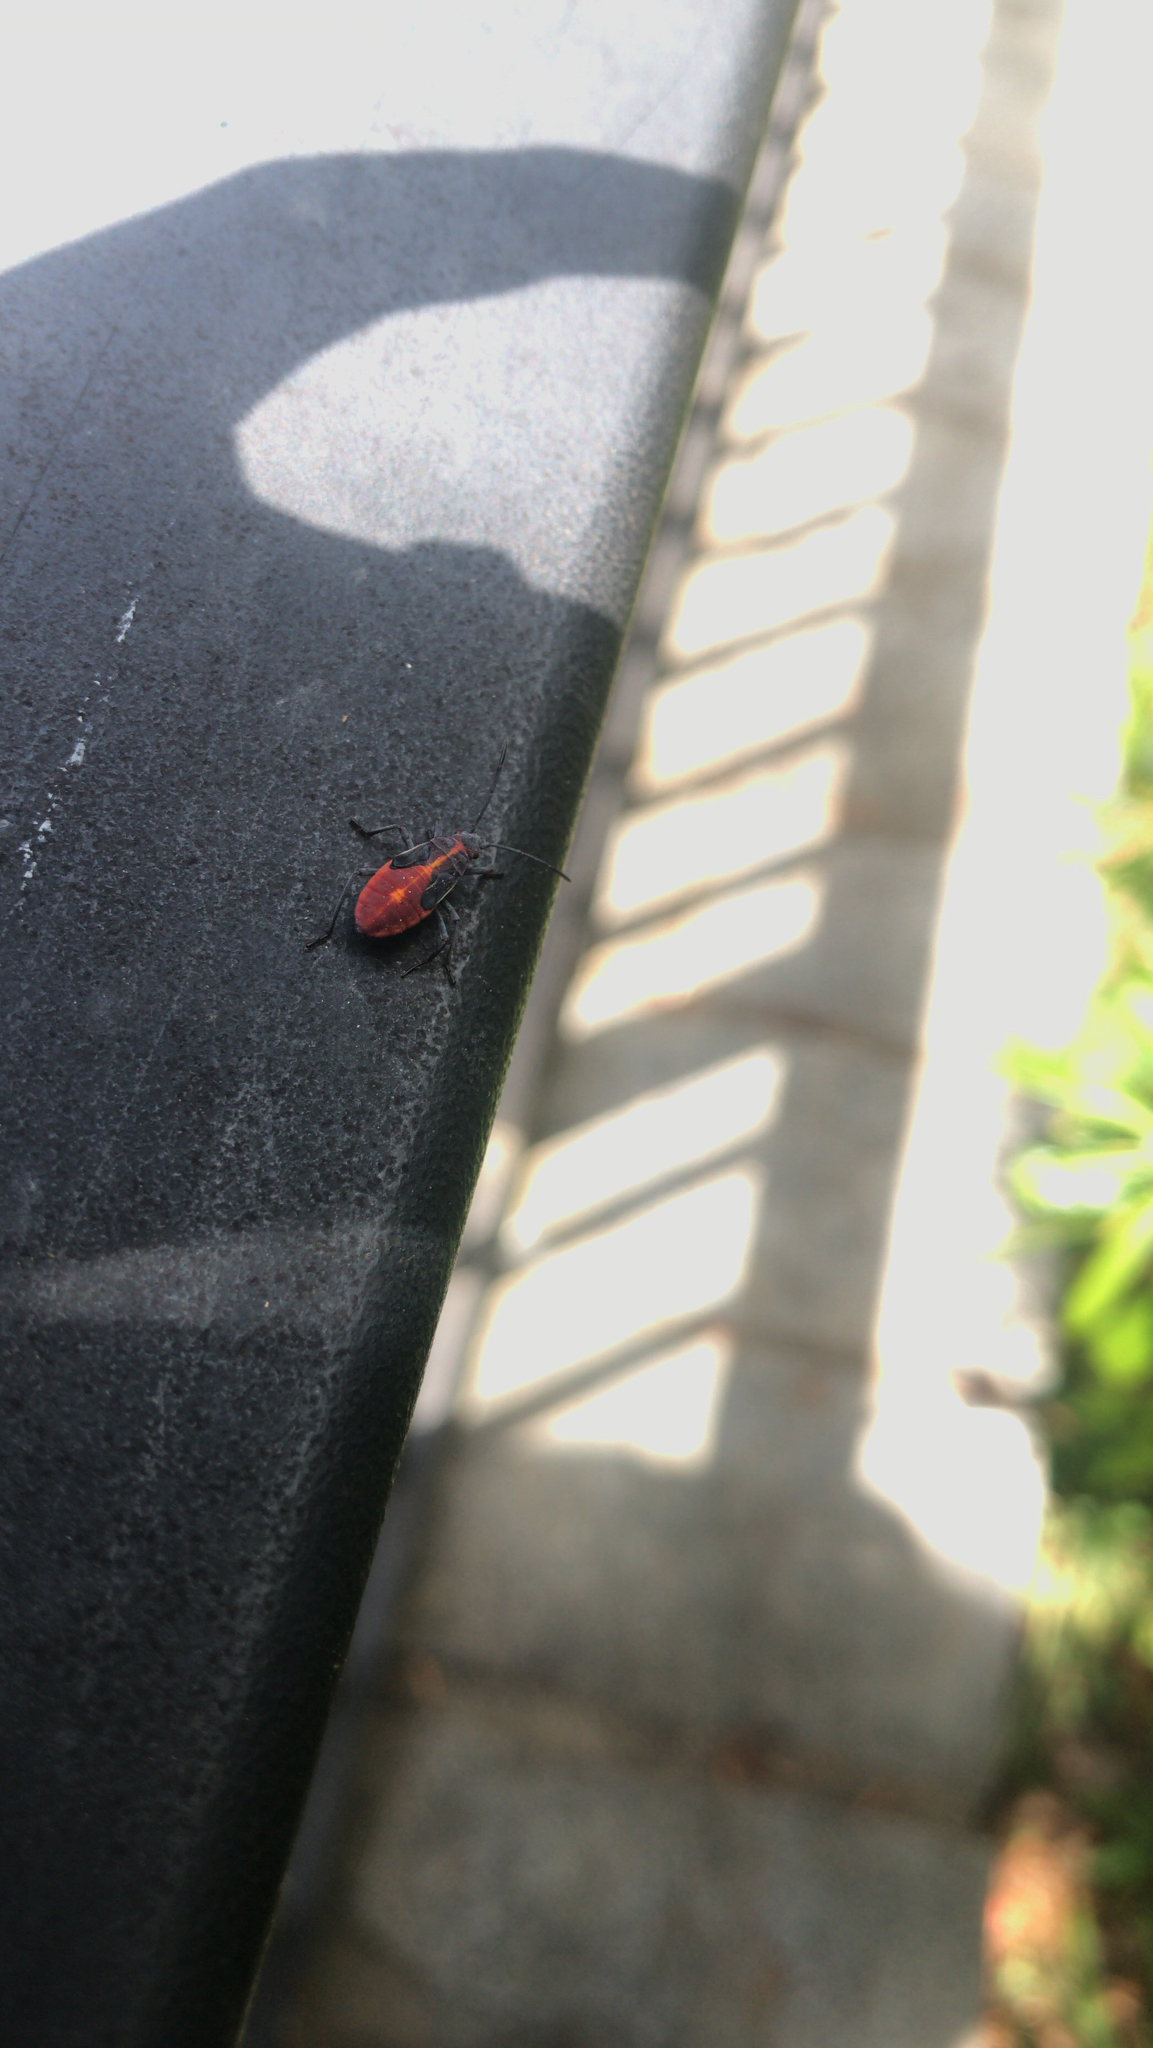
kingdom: Animalia
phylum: Arthropoda
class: Insecta
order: Hemiptera
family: Rhopalidae
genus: Boisea
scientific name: Boisea trivittata
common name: Boxelder bug
